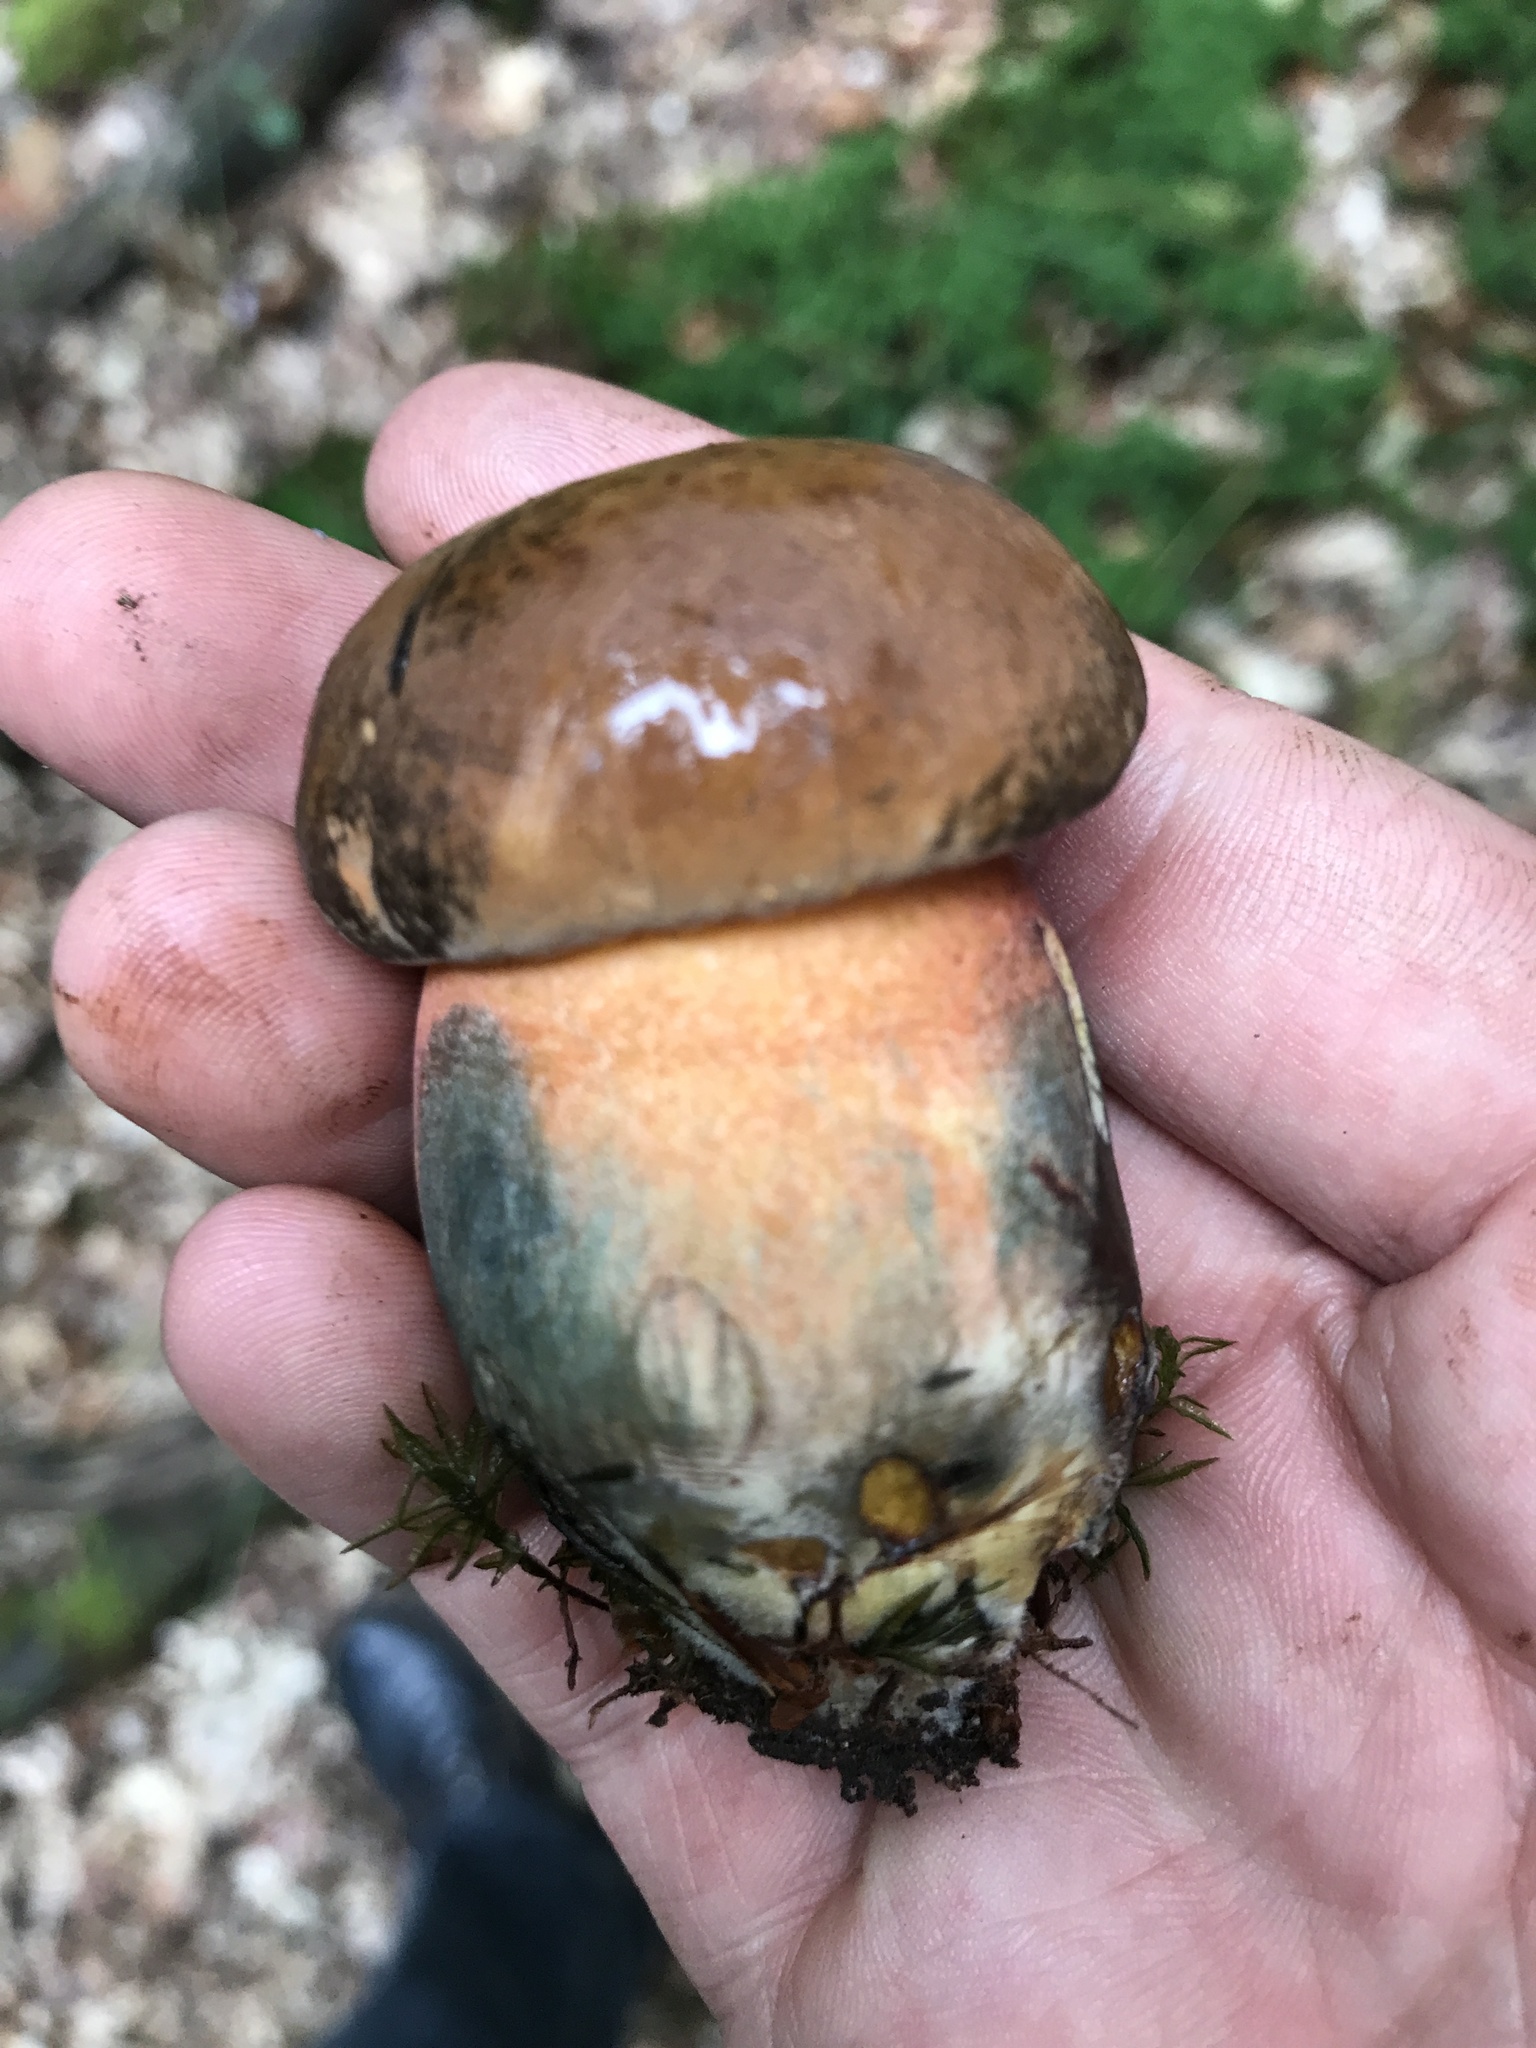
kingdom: Fungi
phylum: Basidiomycota
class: Agaricomycetes
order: Boletales
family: Boletaceae
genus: Neoboletus
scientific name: Neoboletus luridiformis
